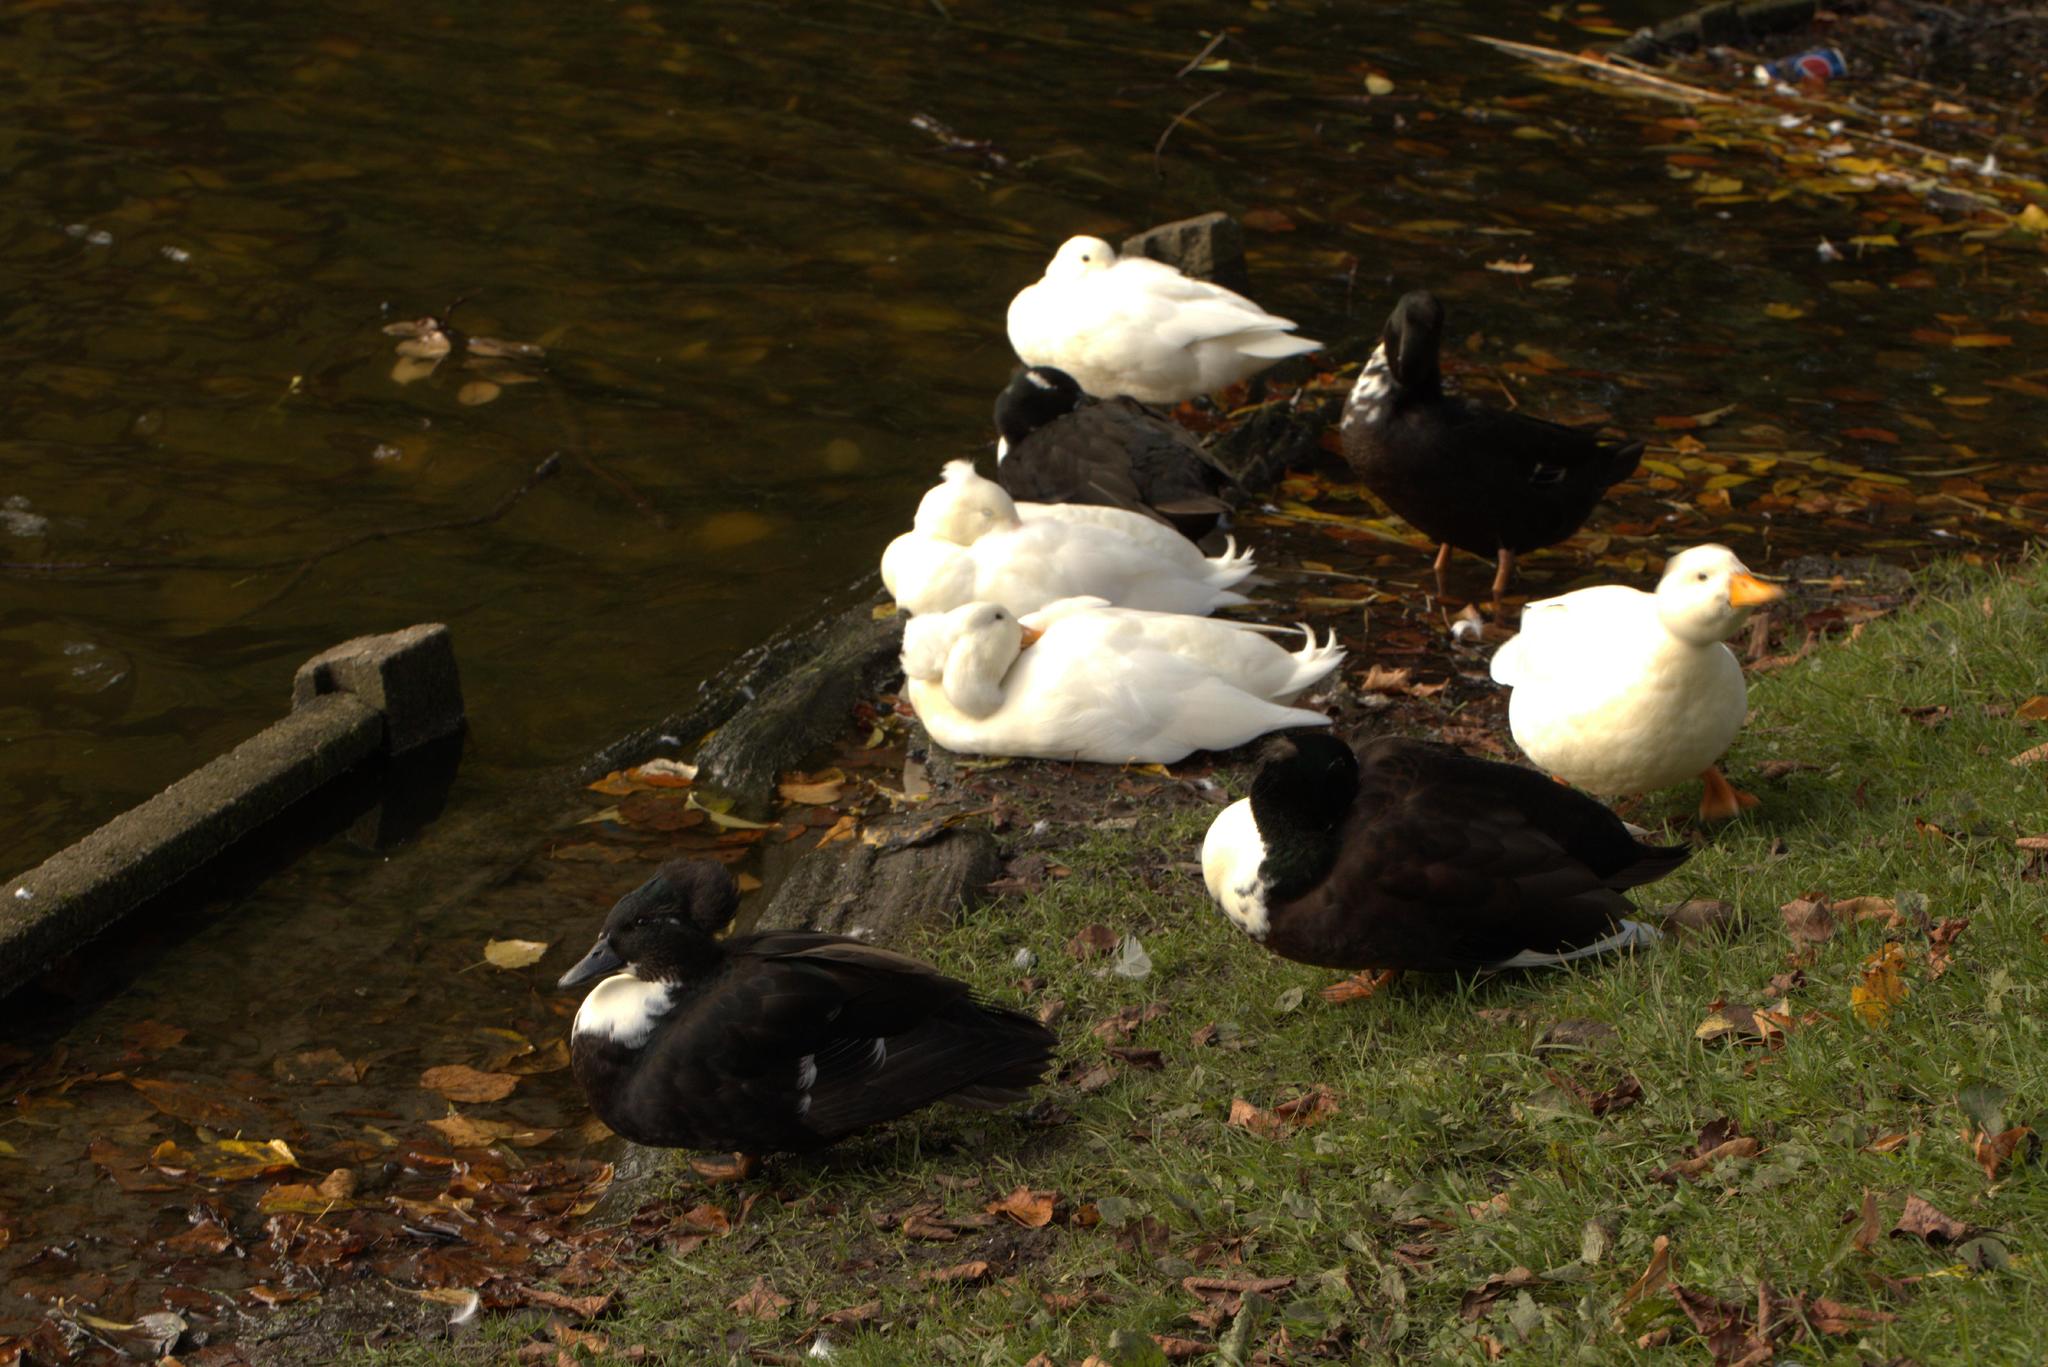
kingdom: Animalia
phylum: Chordata
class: Aves
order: Anseriformes
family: Anatidae
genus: Anas
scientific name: Anas platyrhynchos
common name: Mallard
